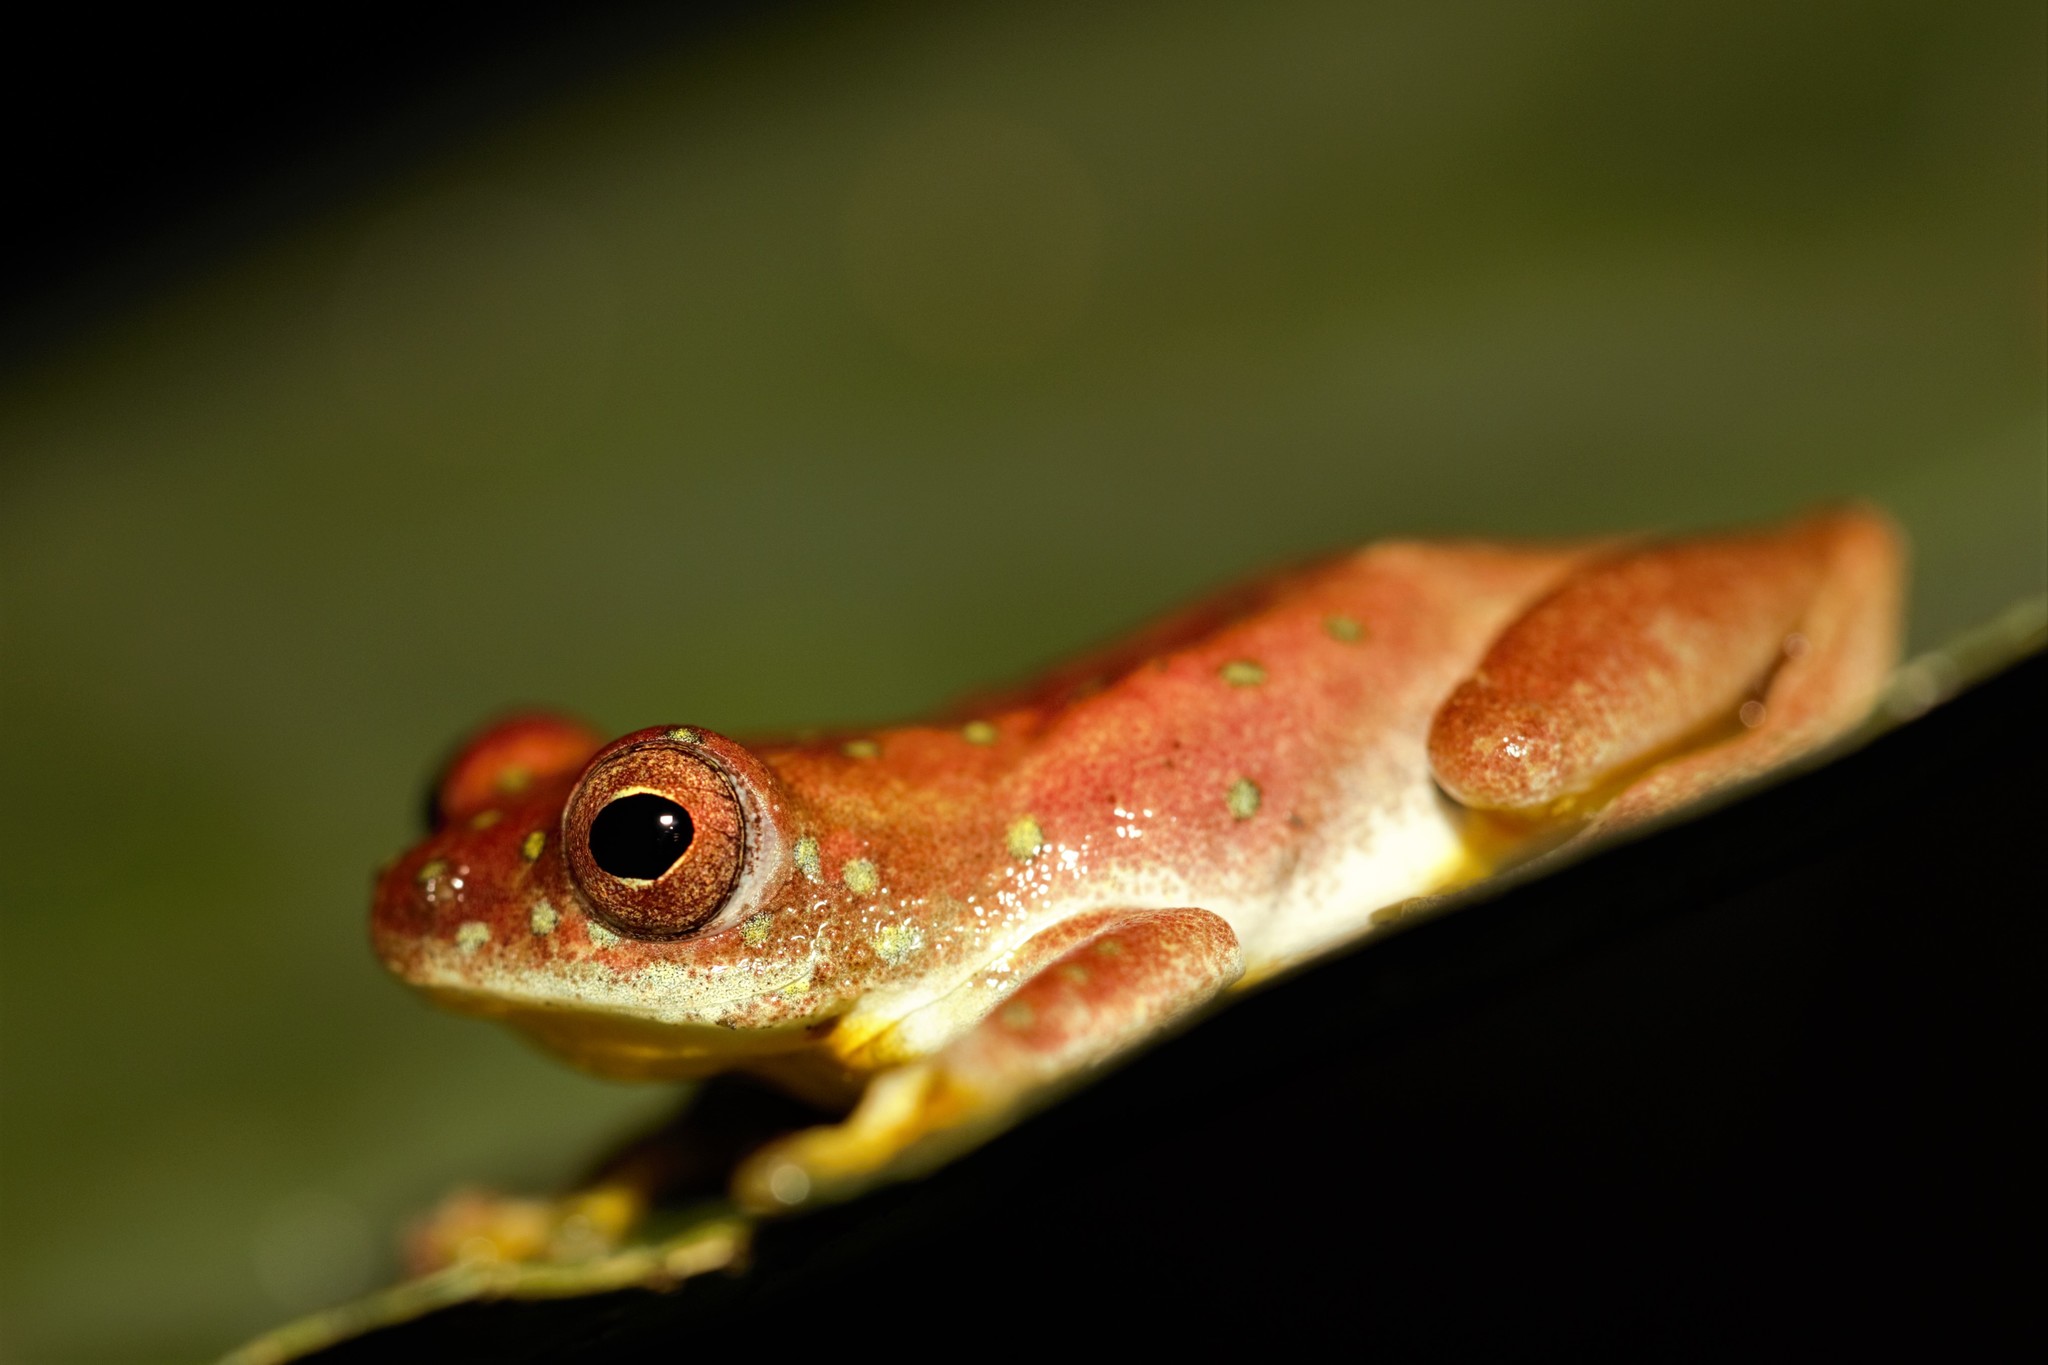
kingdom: Animalia
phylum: Chordata
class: Amphibia
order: Anura
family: Hyperoliidae
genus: Hyperolius
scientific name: Hyperolius ocellatus
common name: Golden-eyed reed frog
